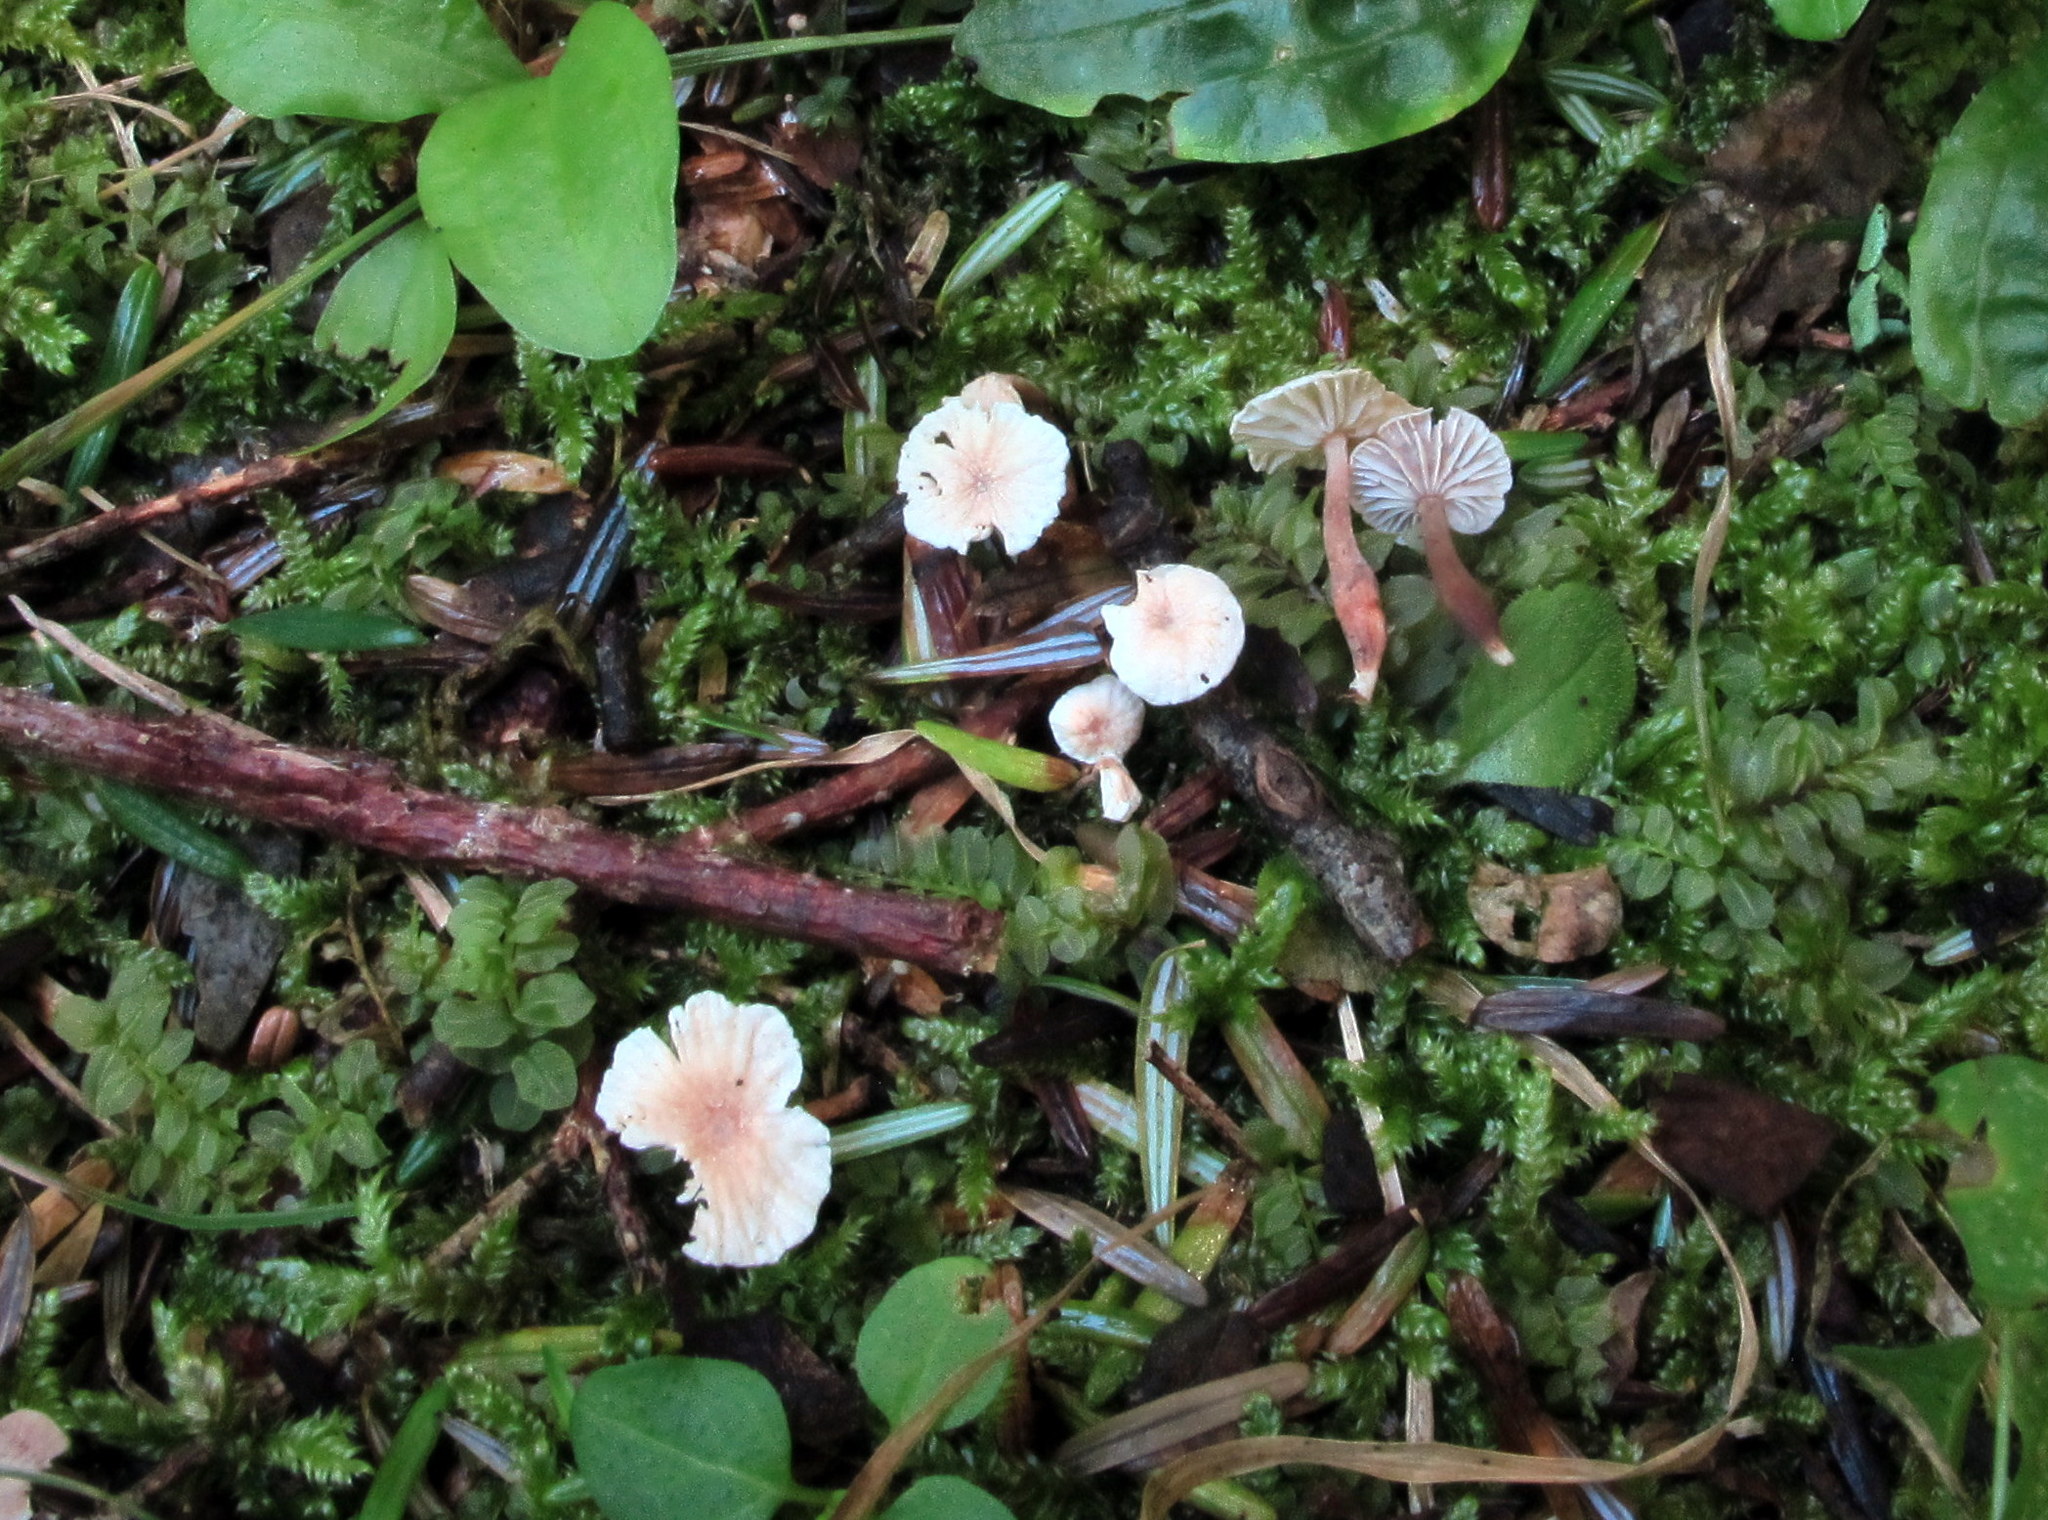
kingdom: Fungi
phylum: Basidiomycota
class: Agaricomycetes
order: Agaricales
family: Omphalotaceae
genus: Marasmiellus
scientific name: Marasmiellus praeacutus
